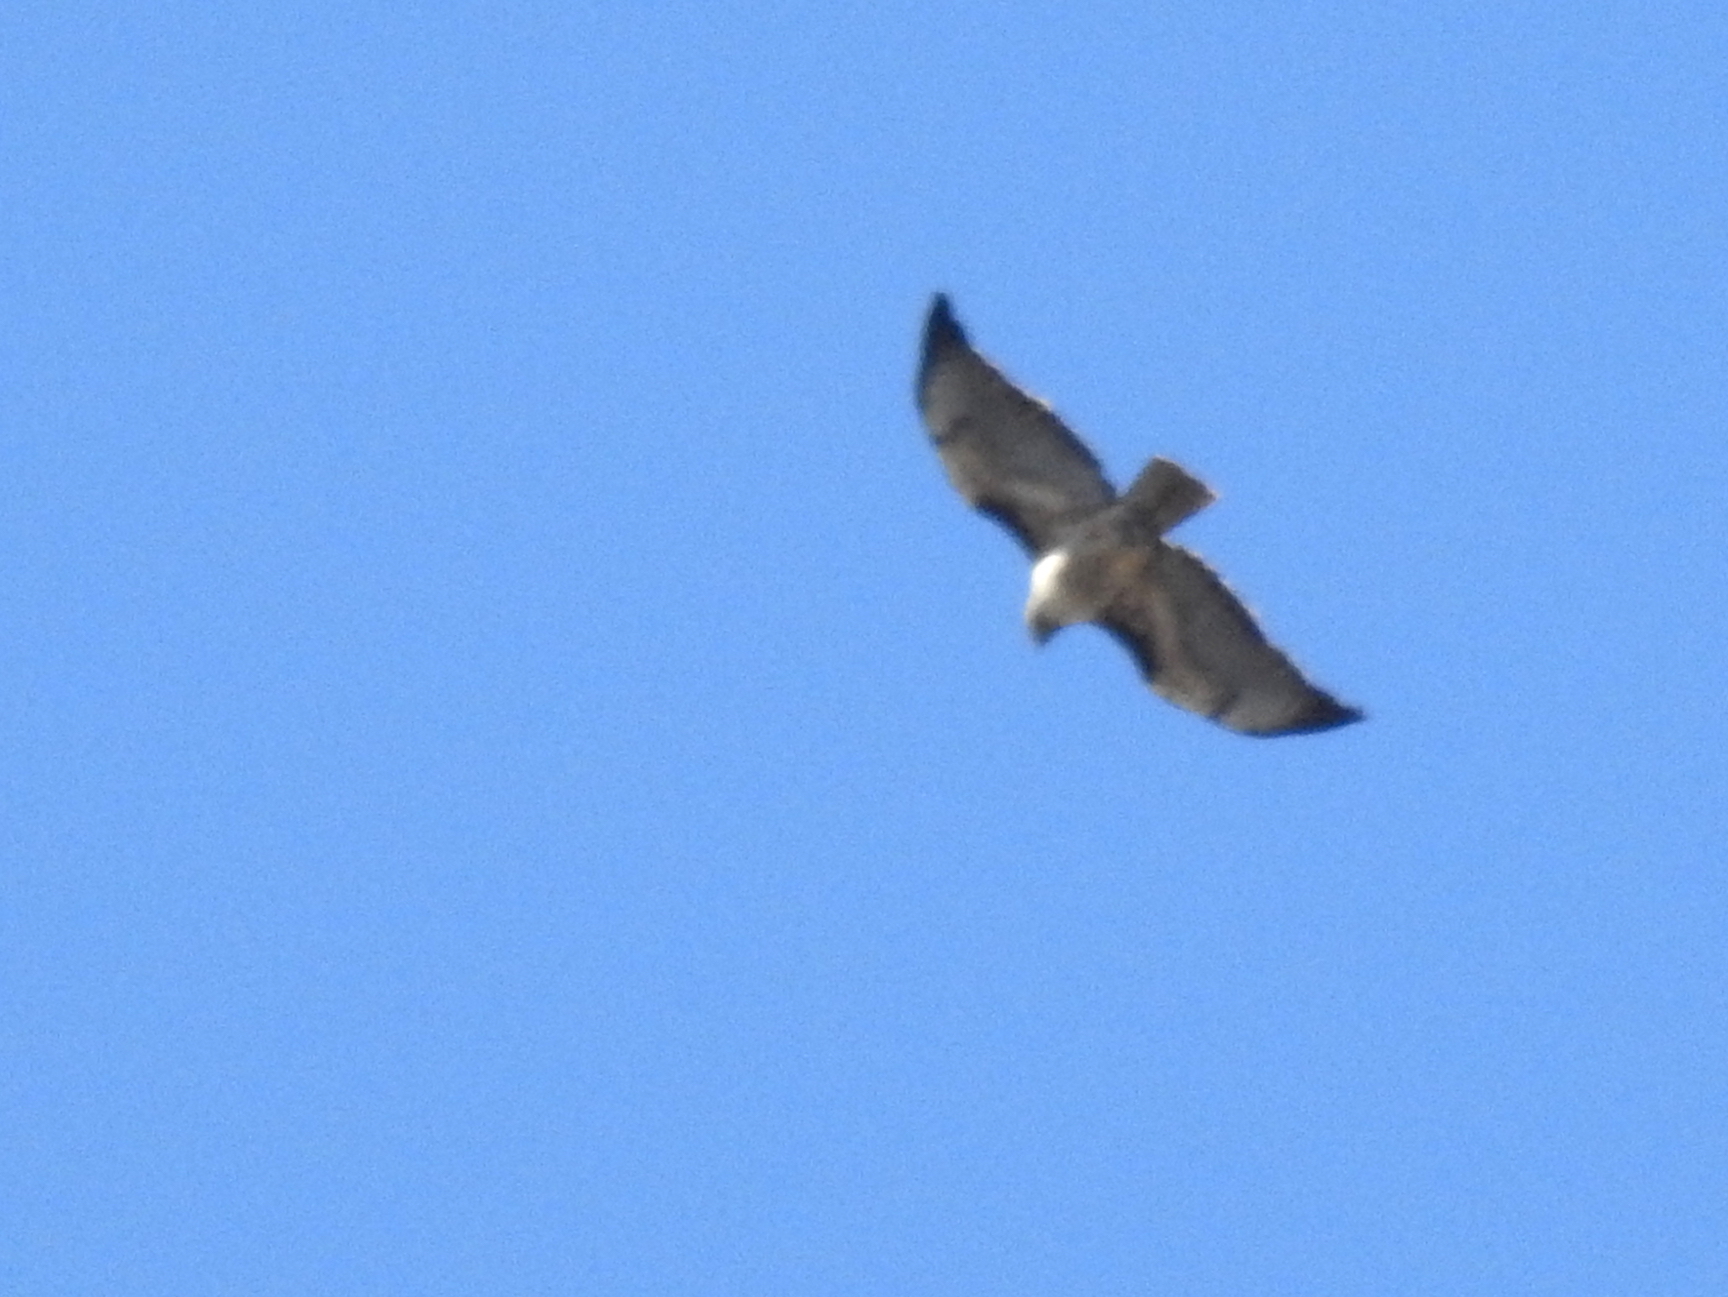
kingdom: Animalia
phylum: Chordata
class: Aves
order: Accipitriformes
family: Accipitridae
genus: Buteo
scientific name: Buteo jamaicensis
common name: Red-tailed hawk
